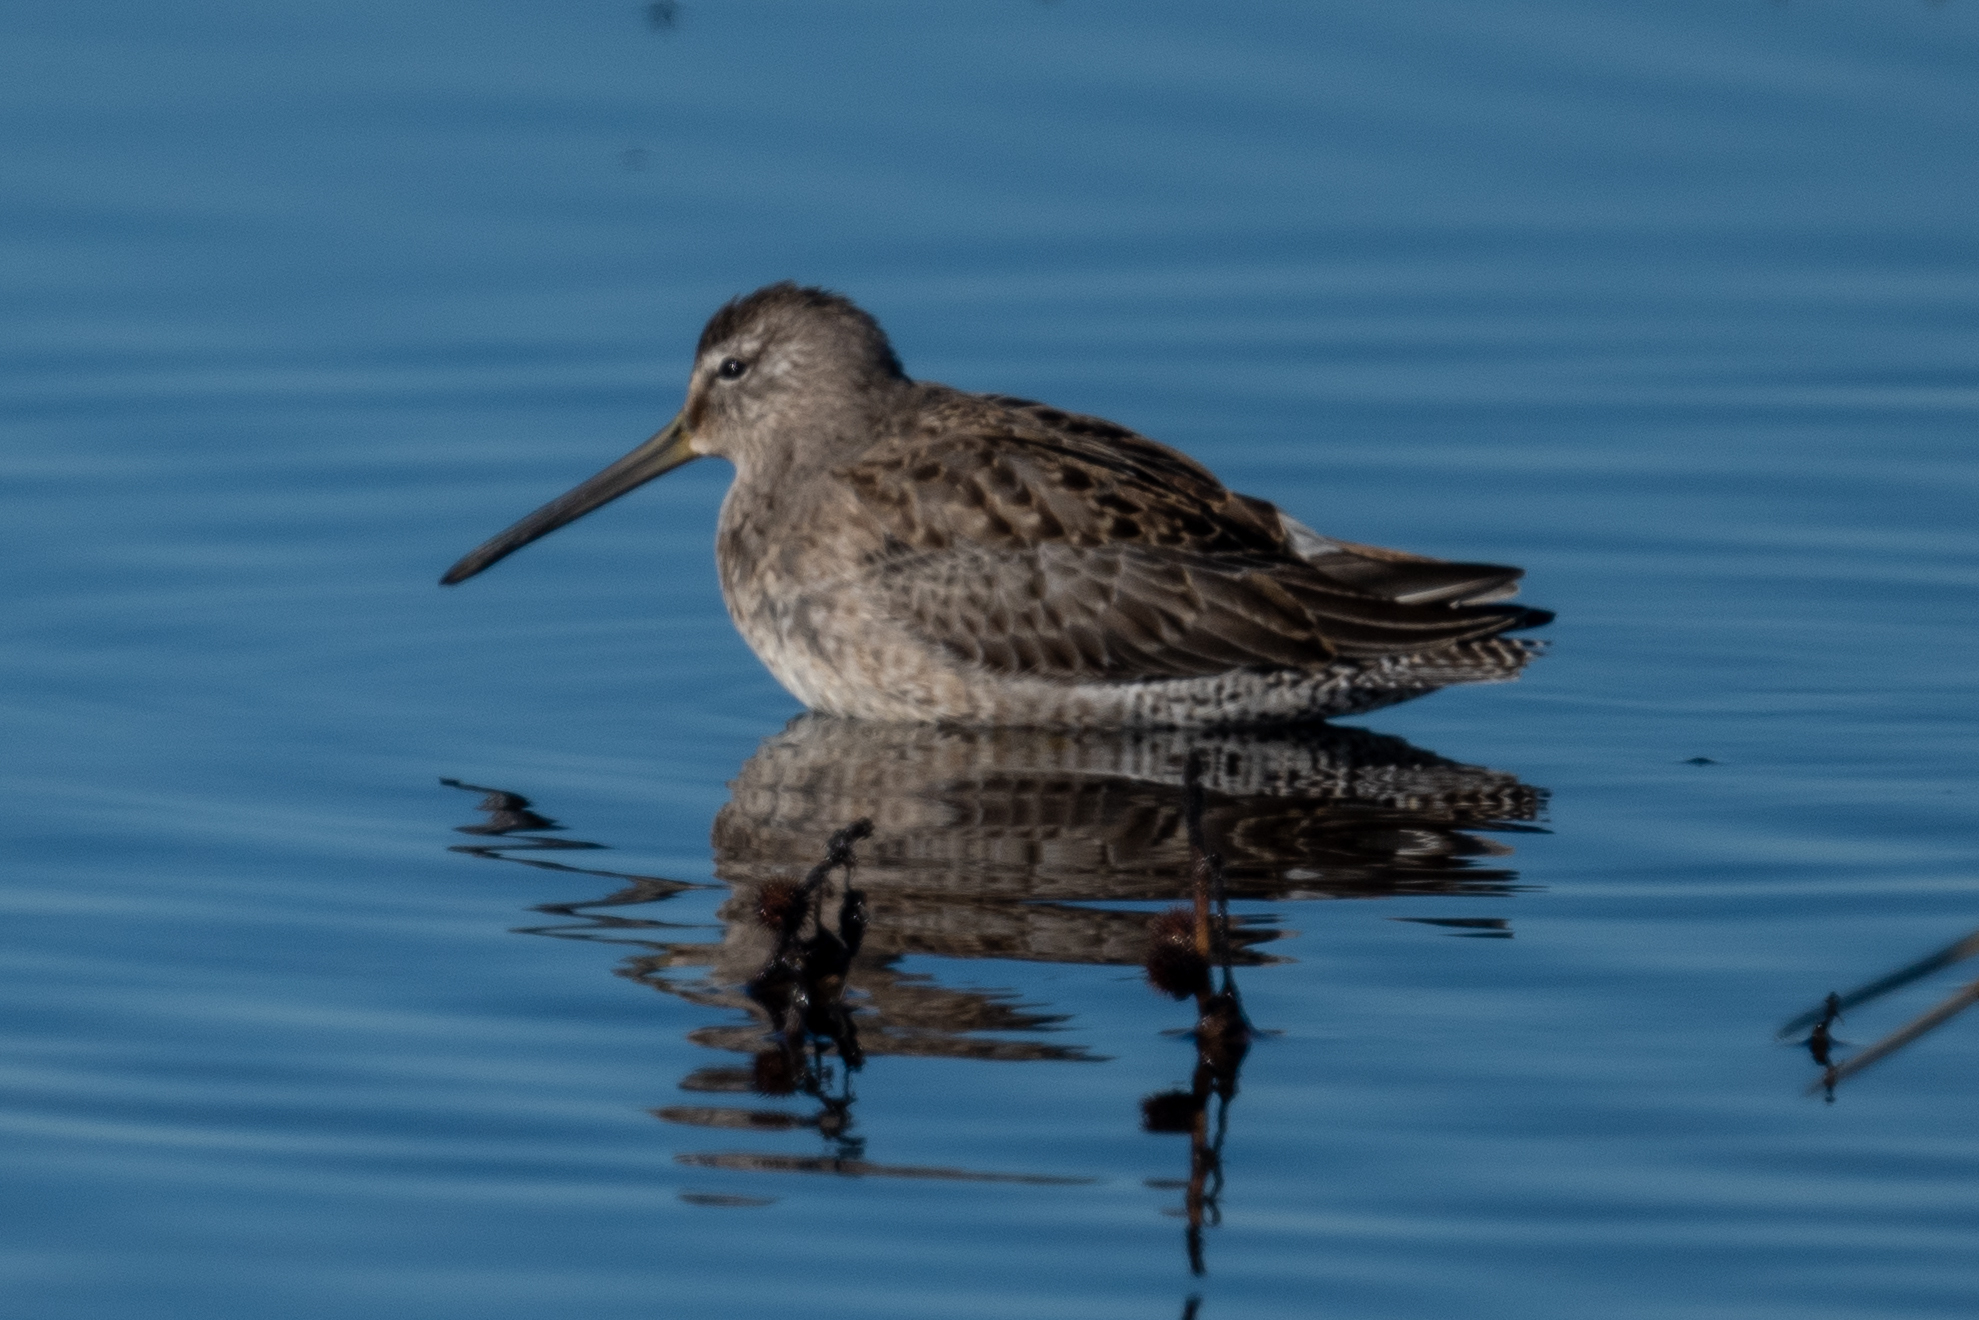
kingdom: Animalia
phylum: Chordata
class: Aves
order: Charadriiformes
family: Scolopacidae
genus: Limnodromus
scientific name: Limnodromus scolopaceus
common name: Long-billed dowitcher
